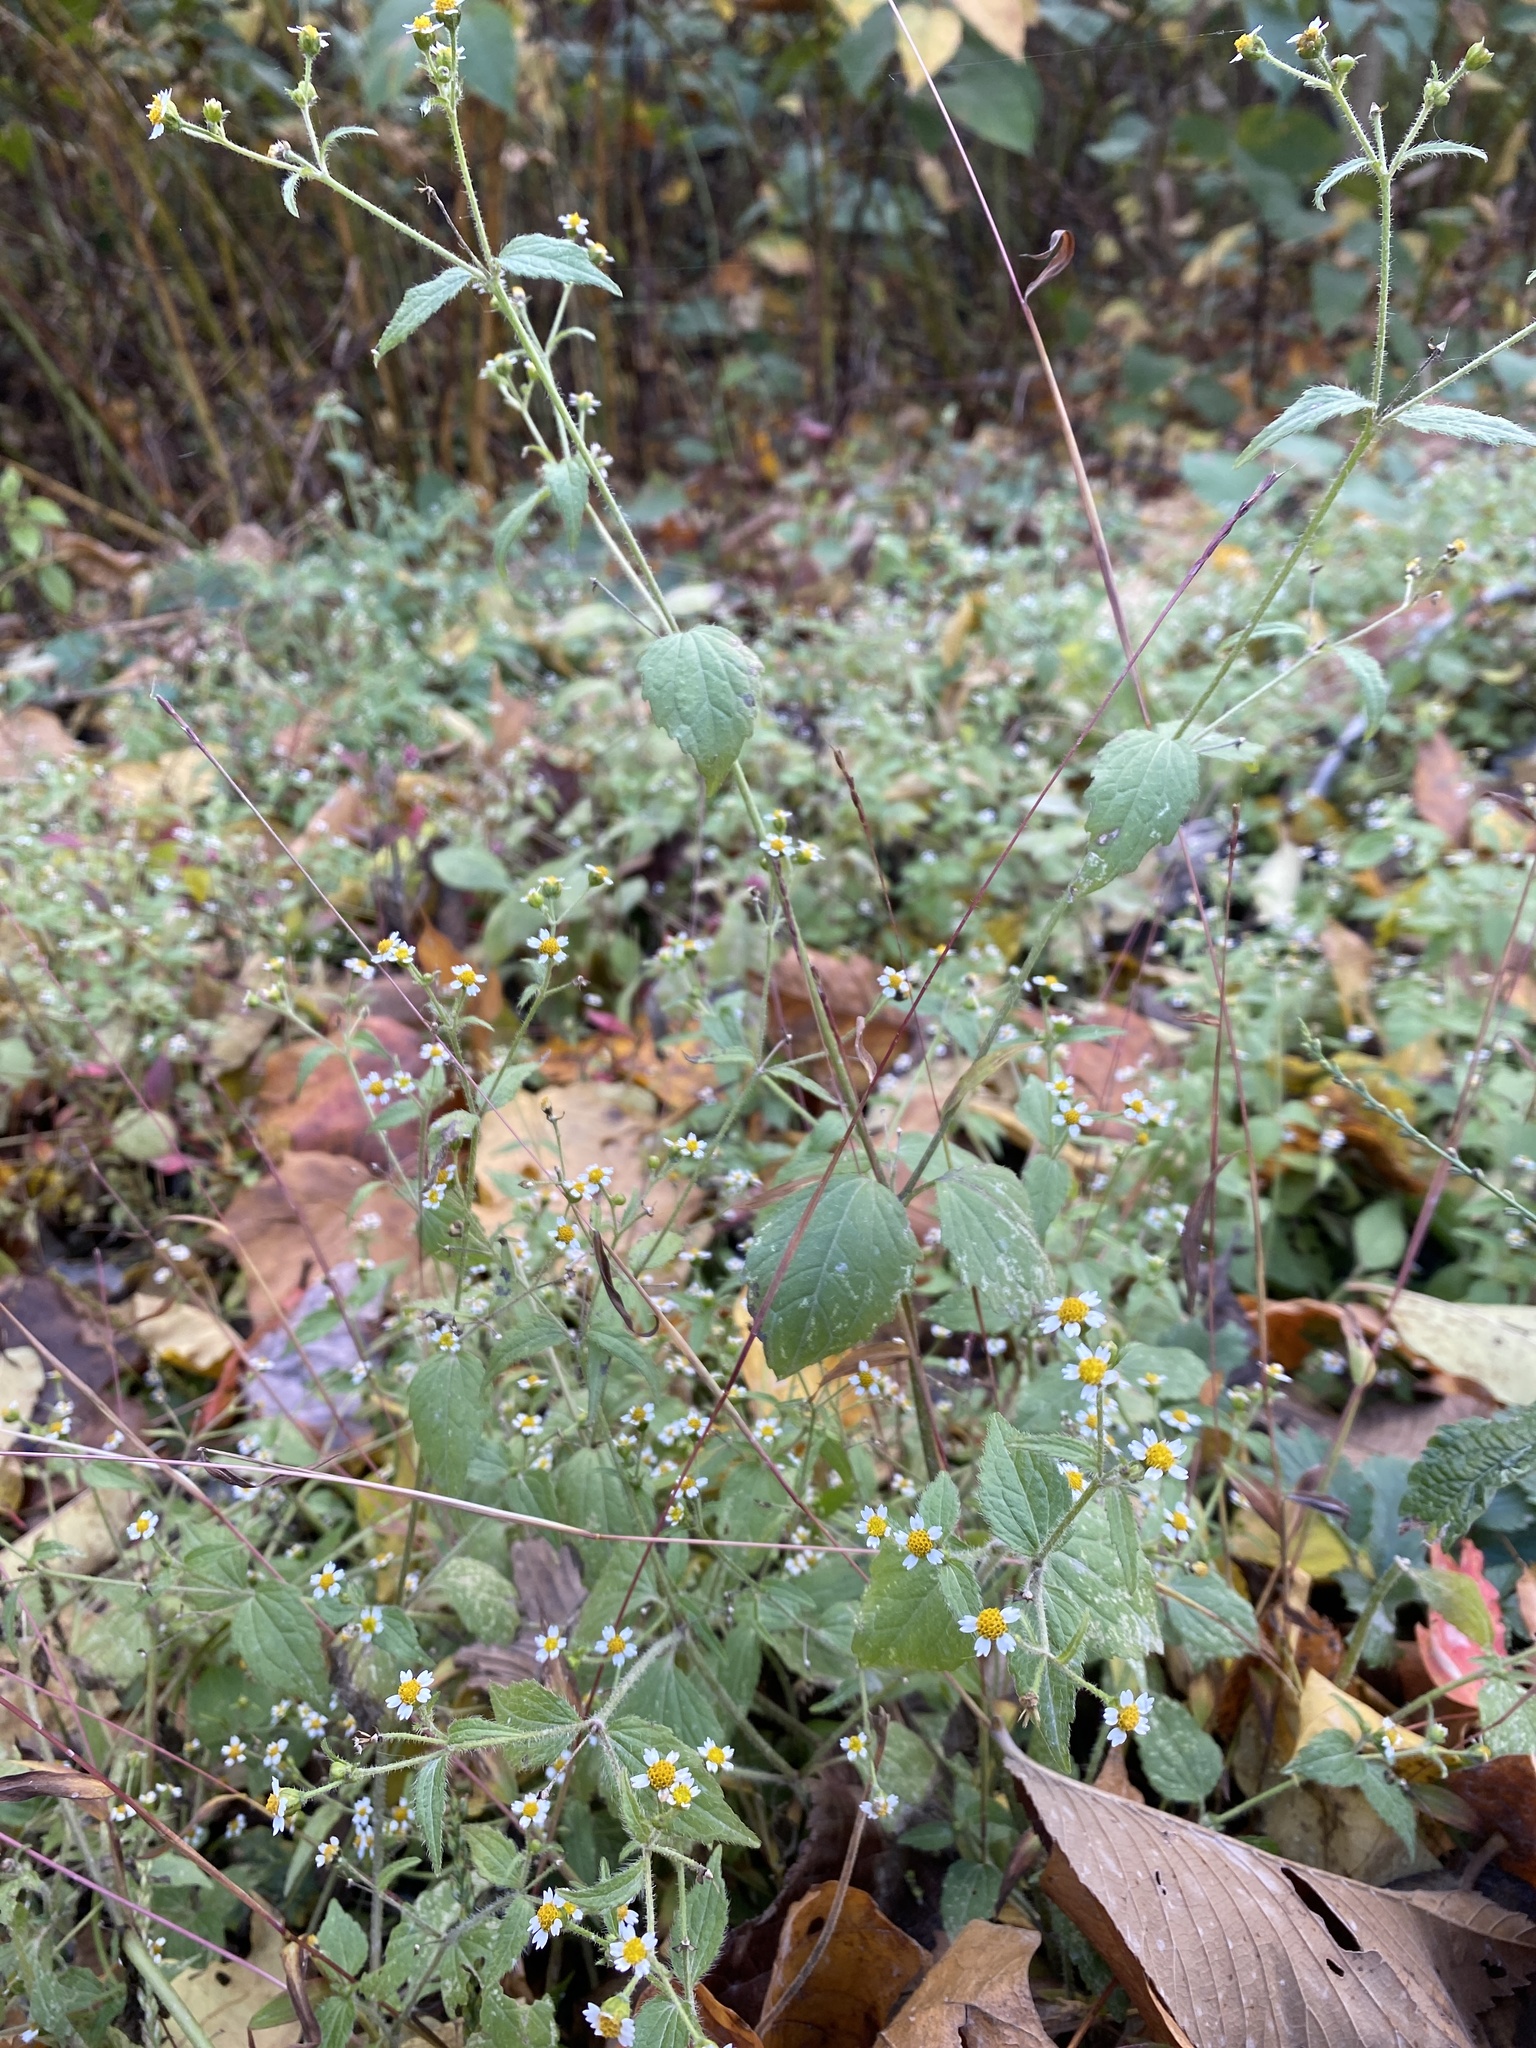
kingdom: Plantae
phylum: Tracheophyta
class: Magnoliopsida
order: Asterales
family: Asteraceae
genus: Galinsoga
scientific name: Galinsoga quadriradiata
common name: Shaggy soldier
